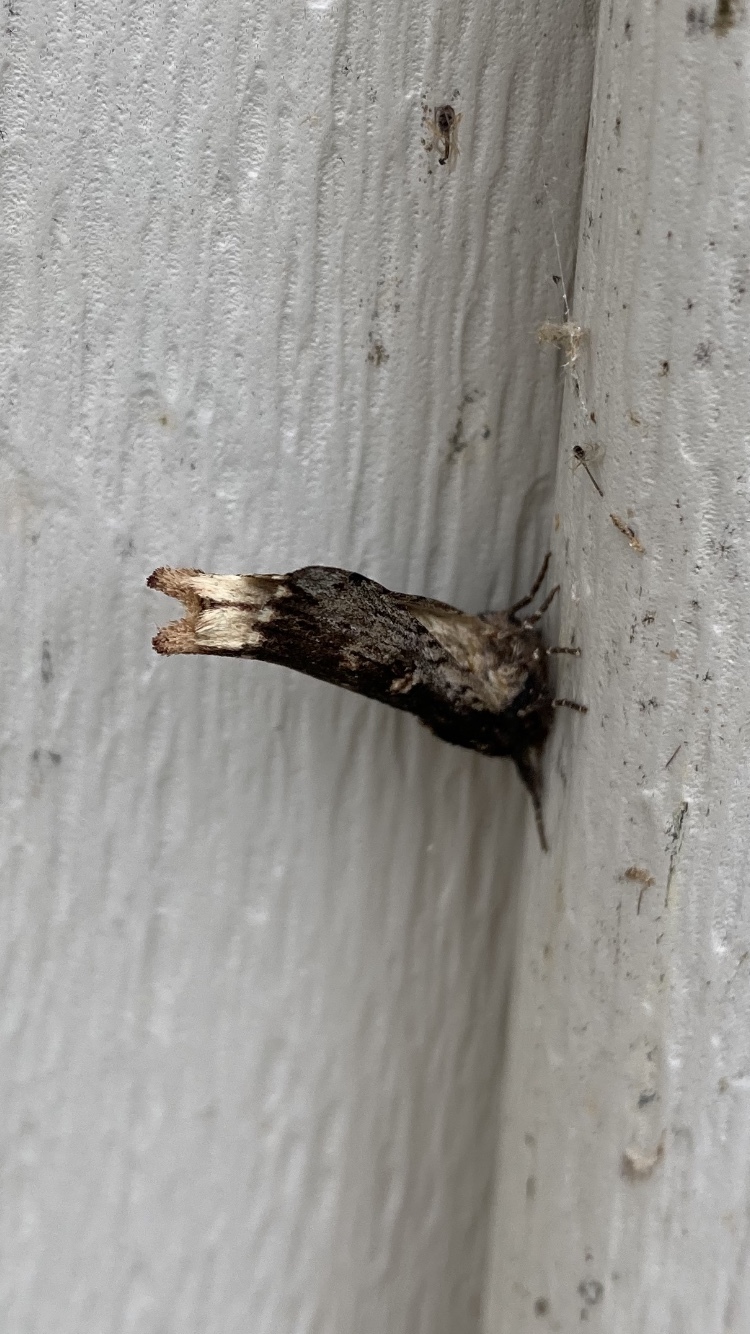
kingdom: Animalia
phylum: Arthropoda
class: Insecta
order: Lepidoptera
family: Notodontidae
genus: Schizura
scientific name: Schizura ipomaeae
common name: Morning-glory prominent
